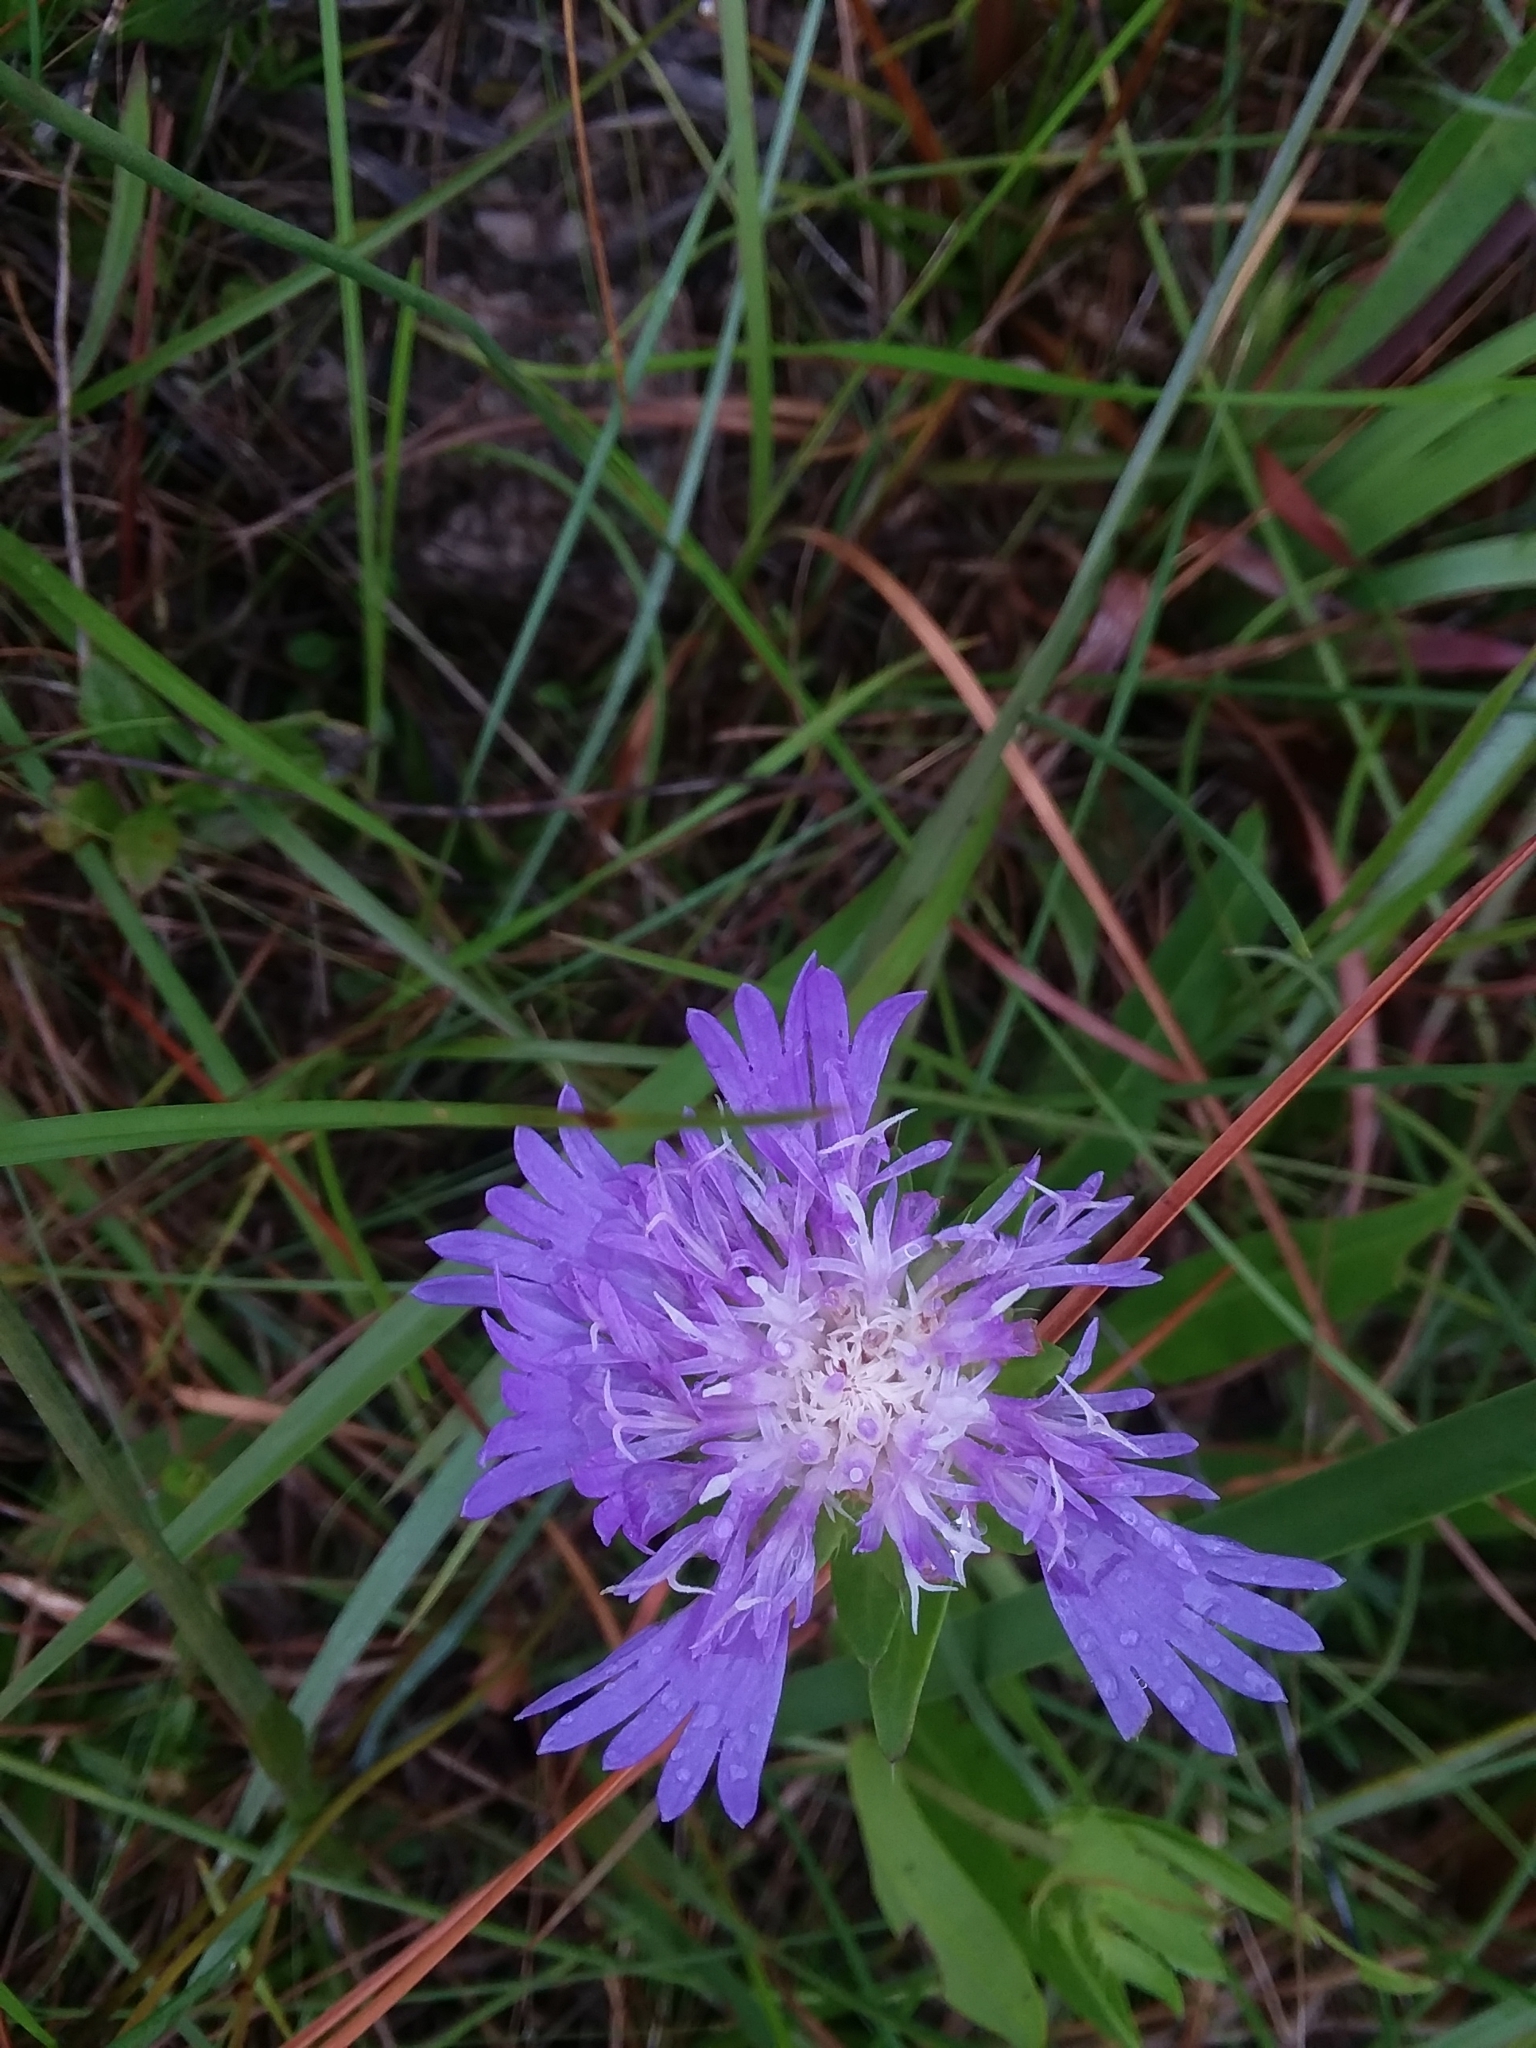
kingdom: Plantae
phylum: Tracheophyta
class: Magnoliopsida
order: Asterales
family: Asteraceae
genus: Stokesia
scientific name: Stokesia laevis
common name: Stokes'-aster
